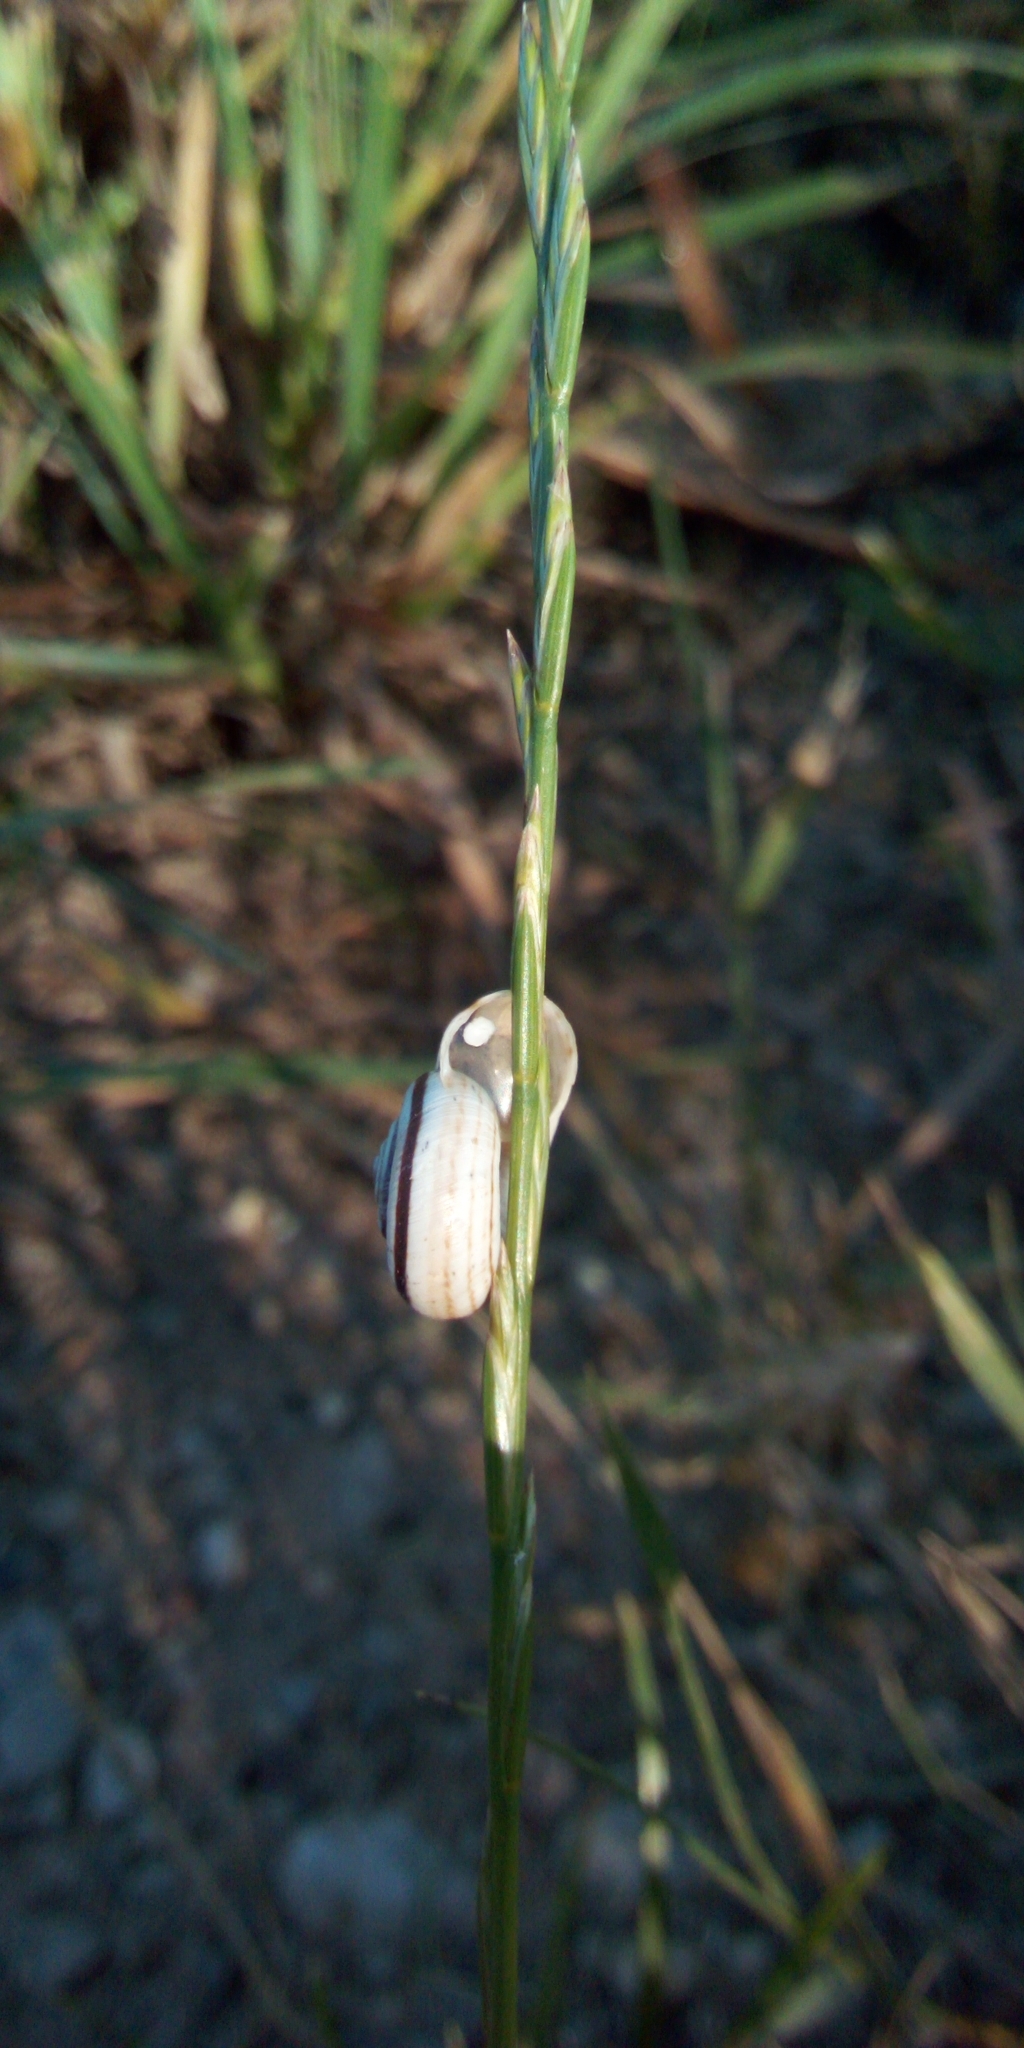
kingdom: Animalia
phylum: Mollusca
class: Gastropoda
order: Stylommatophora
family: Geomitridae
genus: Xerolenta
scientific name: Xerolenta obvia
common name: White heath snail
